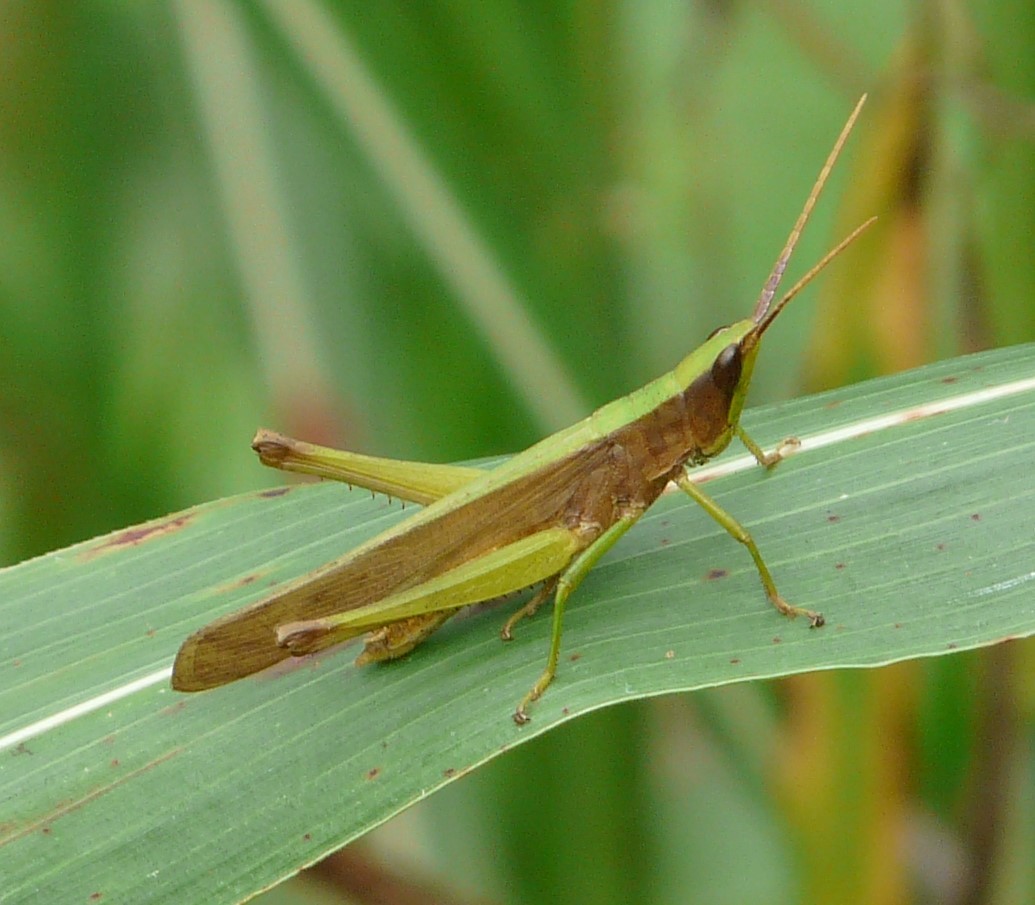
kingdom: Animalia
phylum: Arthropoda
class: Insecta
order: Orthoptera
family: Acrididae
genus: Metaleptea
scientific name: Metaleptea brevicornis
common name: Clipped-wing grasshopper
